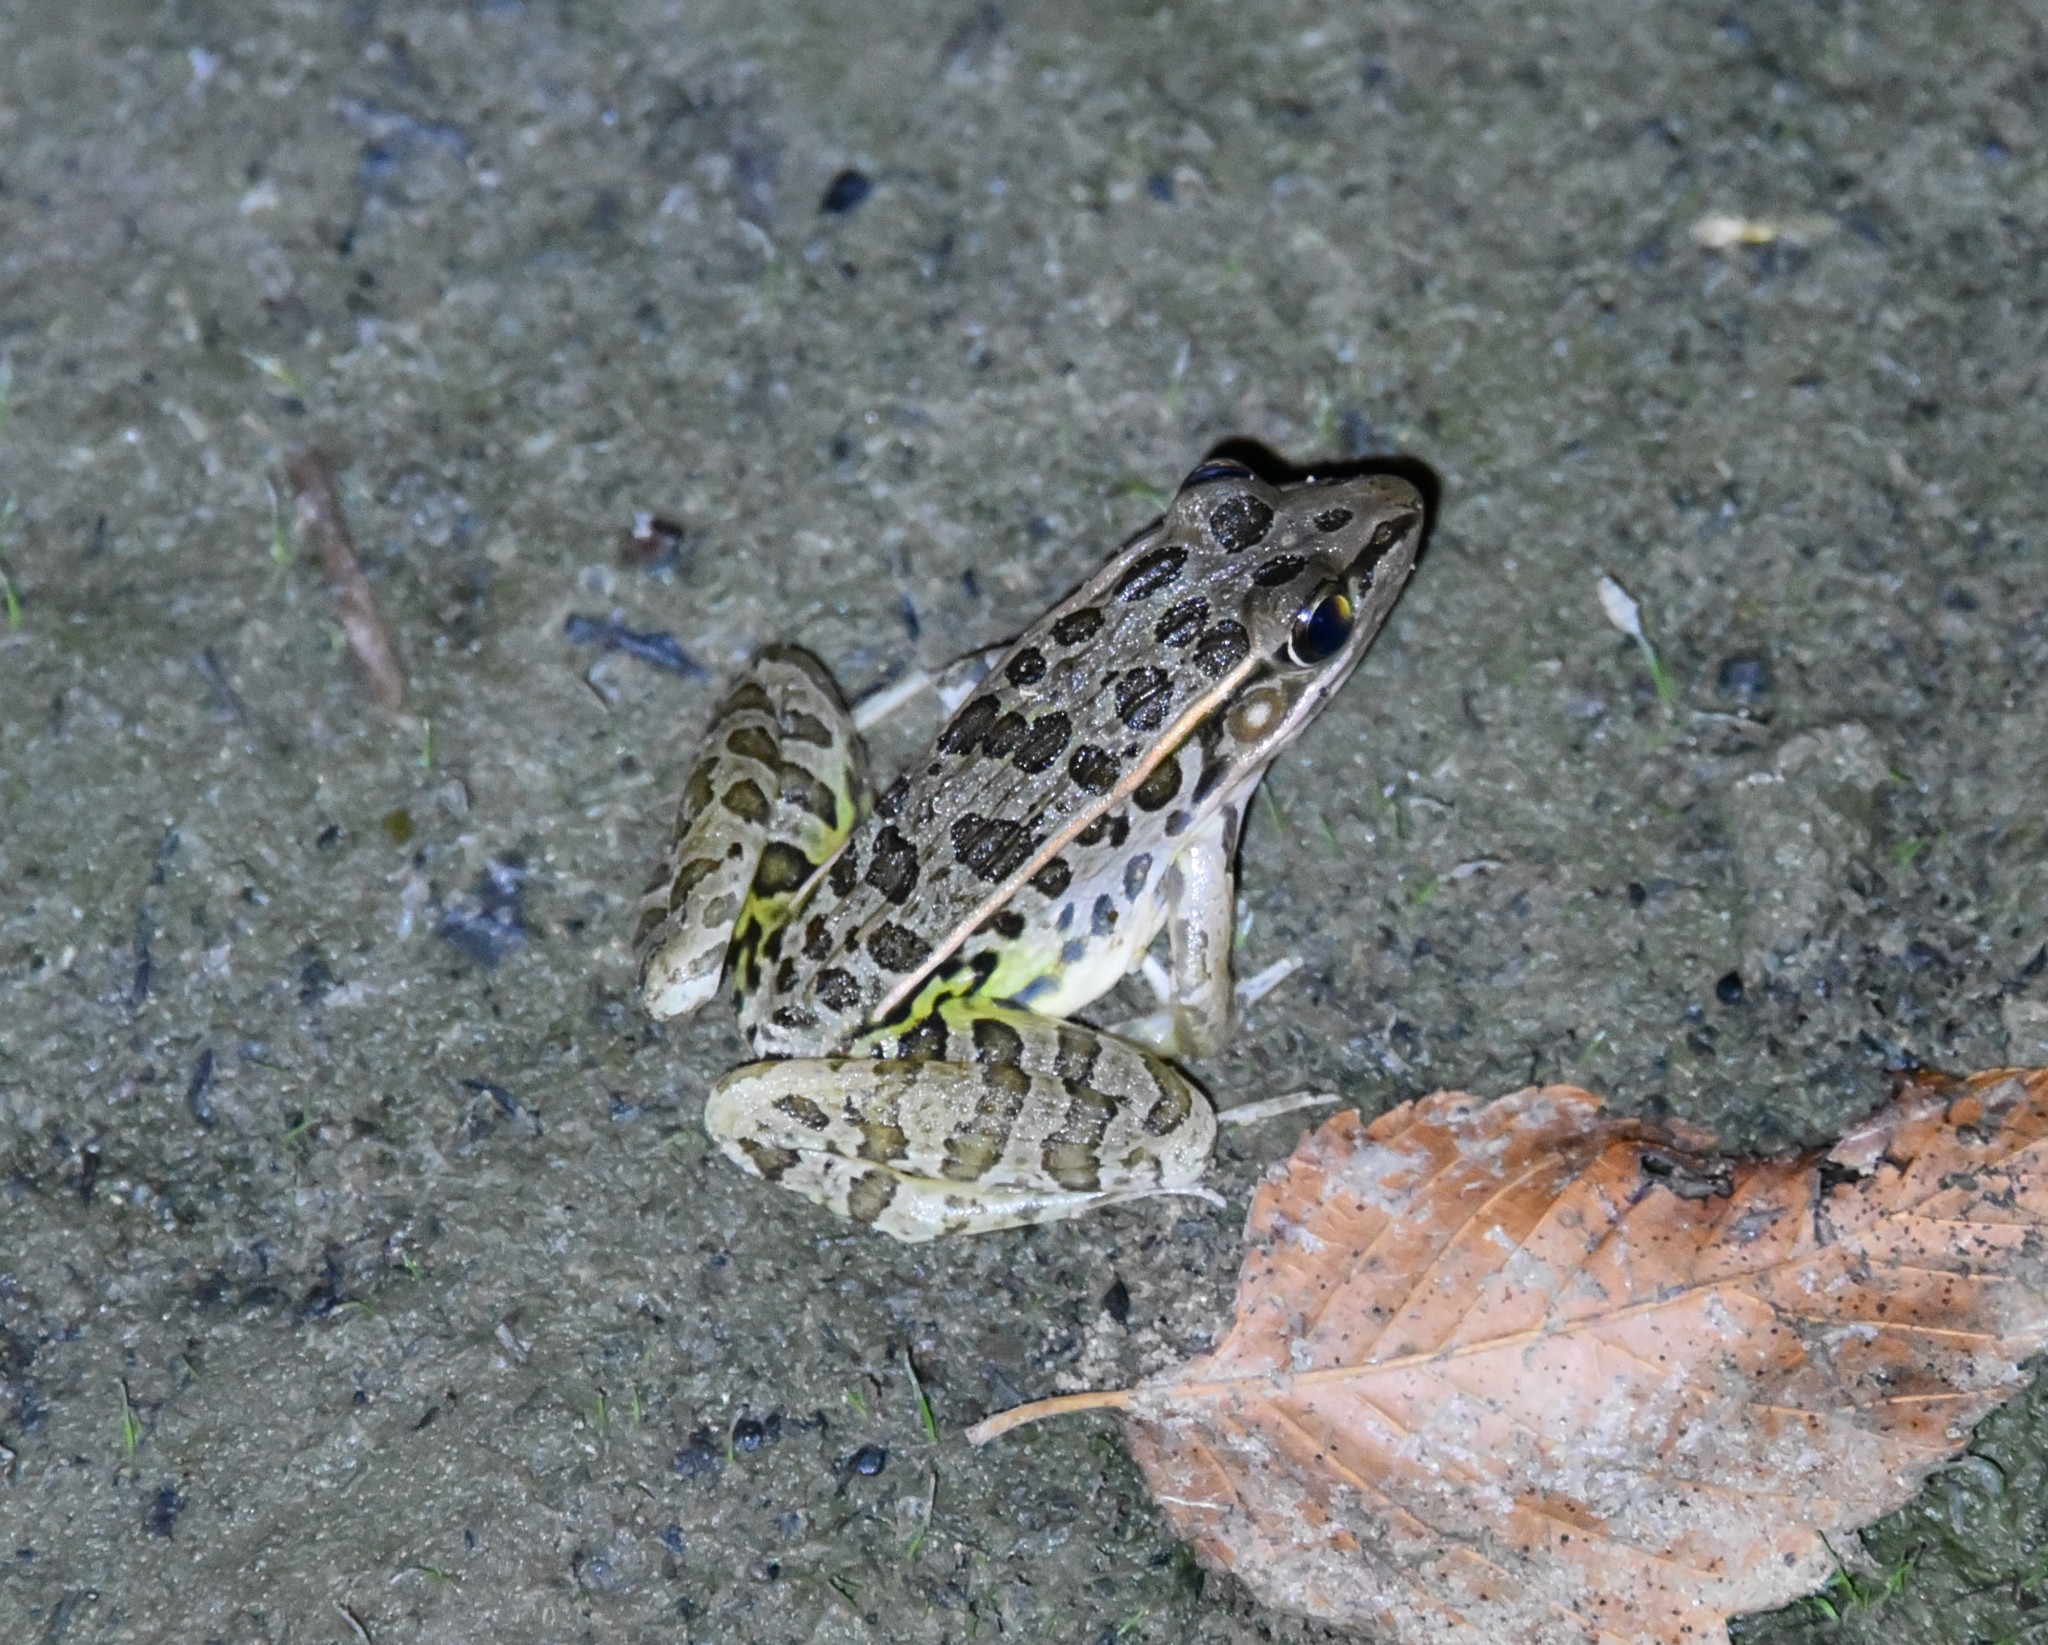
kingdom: Animalia
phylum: Chordata
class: Amphibia
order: Anura
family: Ranidae
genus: Lithobates
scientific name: Lithobates sphenocephalus
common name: Southern leopard frog
